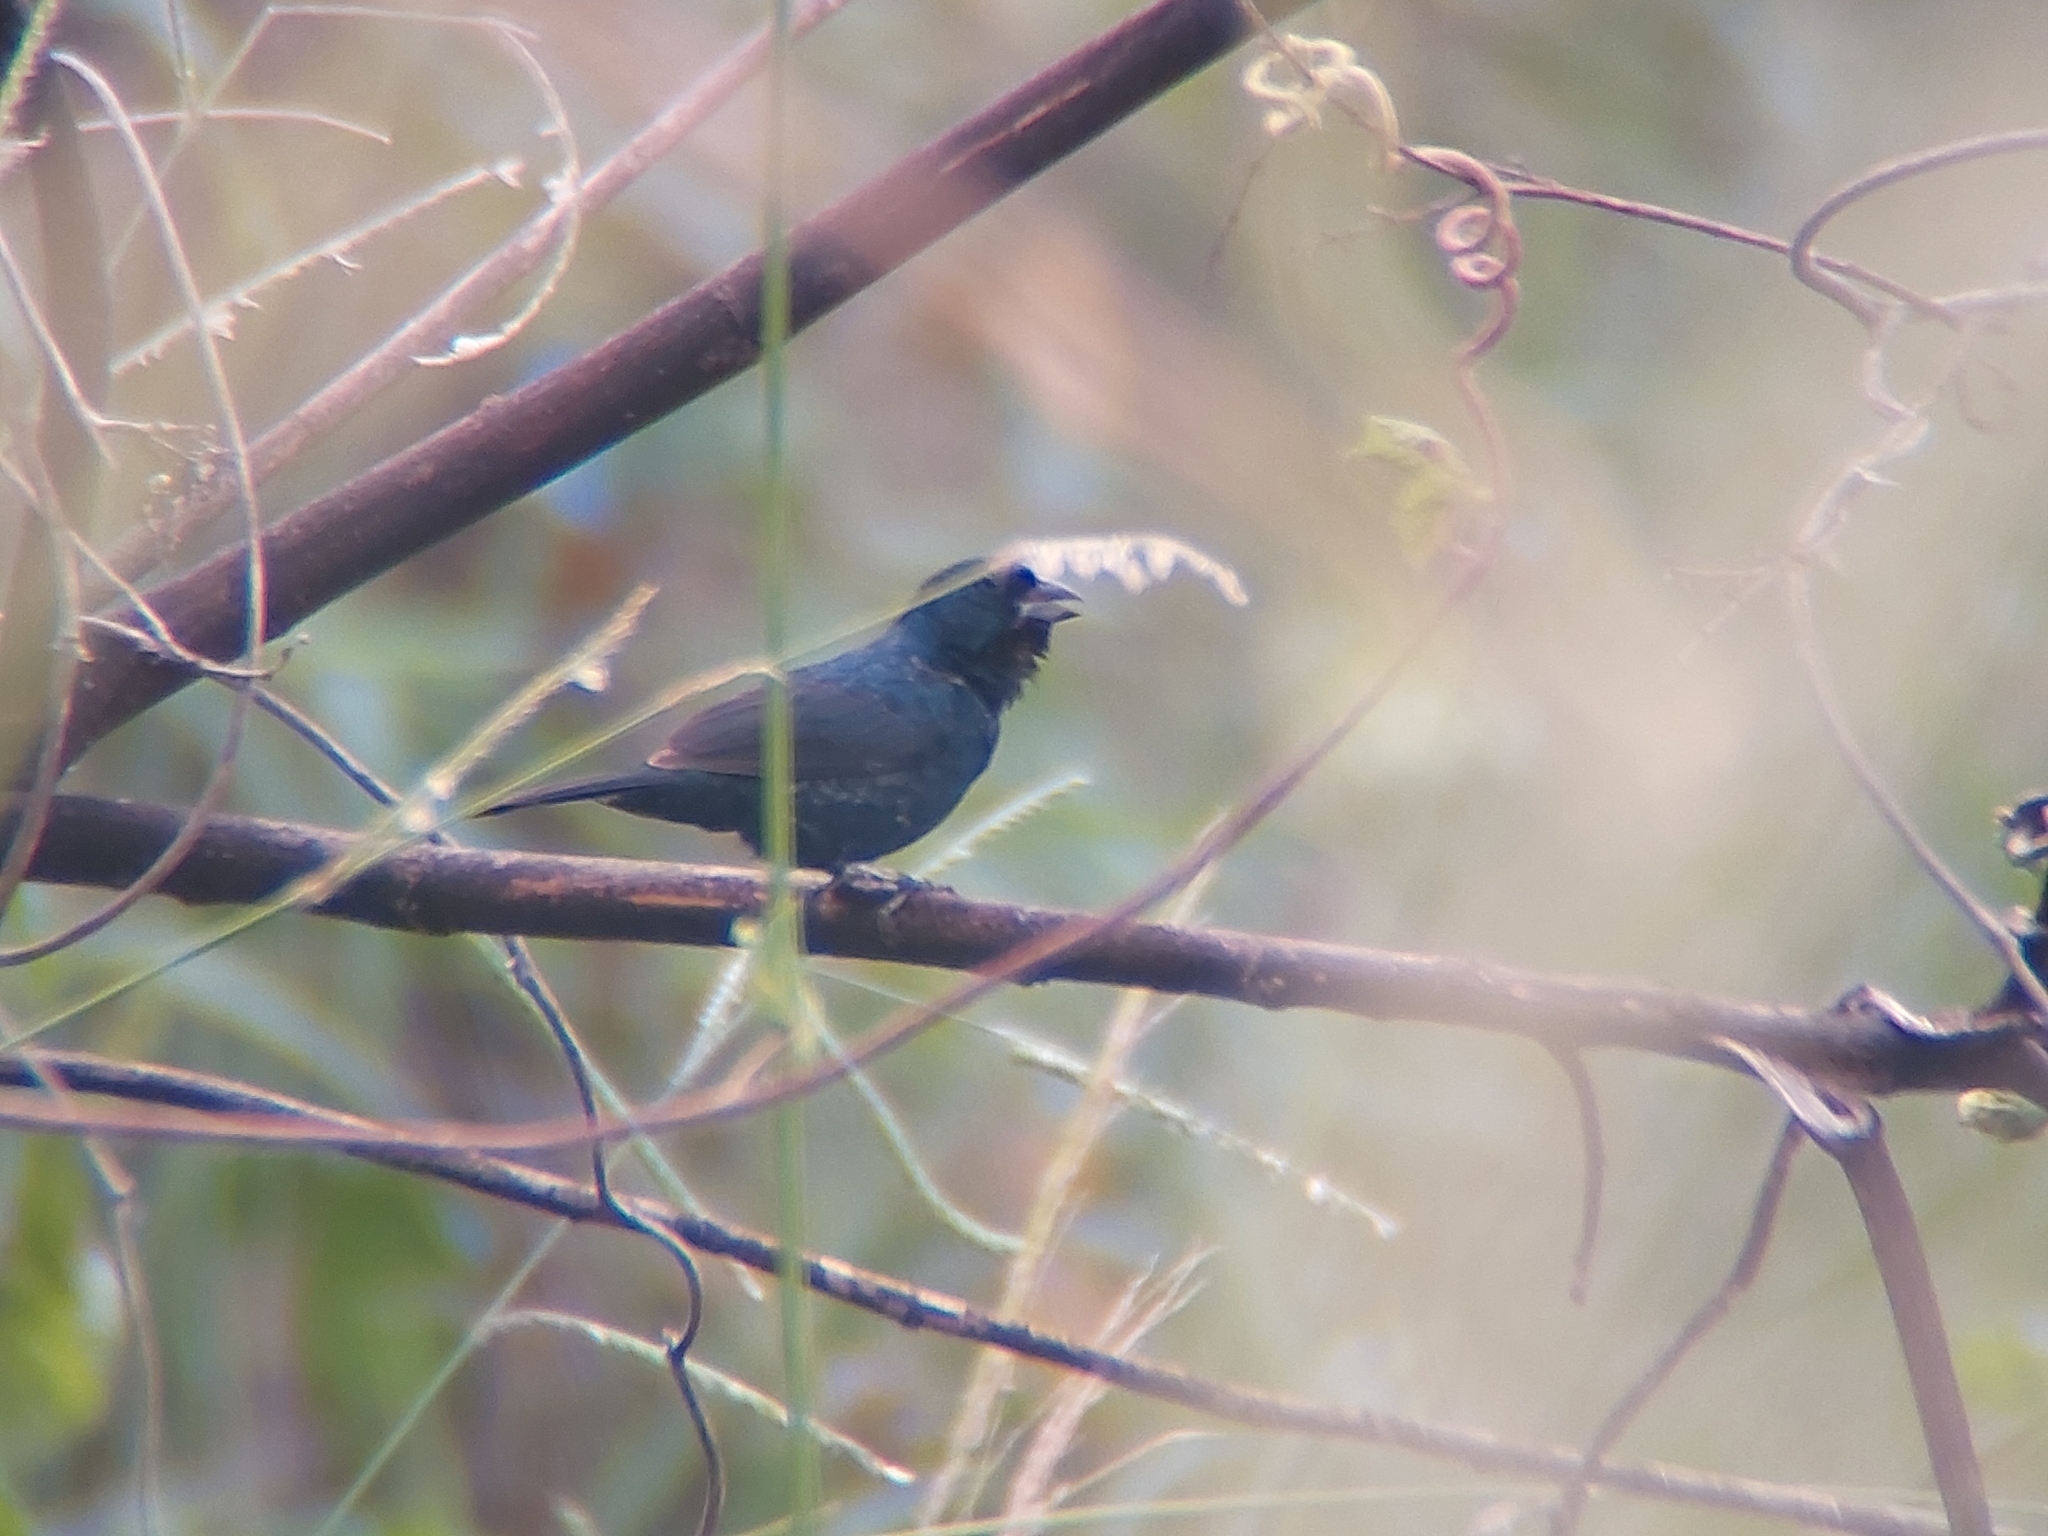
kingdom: Animalia
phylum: Chordata
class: Aves
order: Passeriformes
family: Thraupidae
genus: Volatinia
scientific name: Volatinia jacarina
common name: Blue-black grassquit
